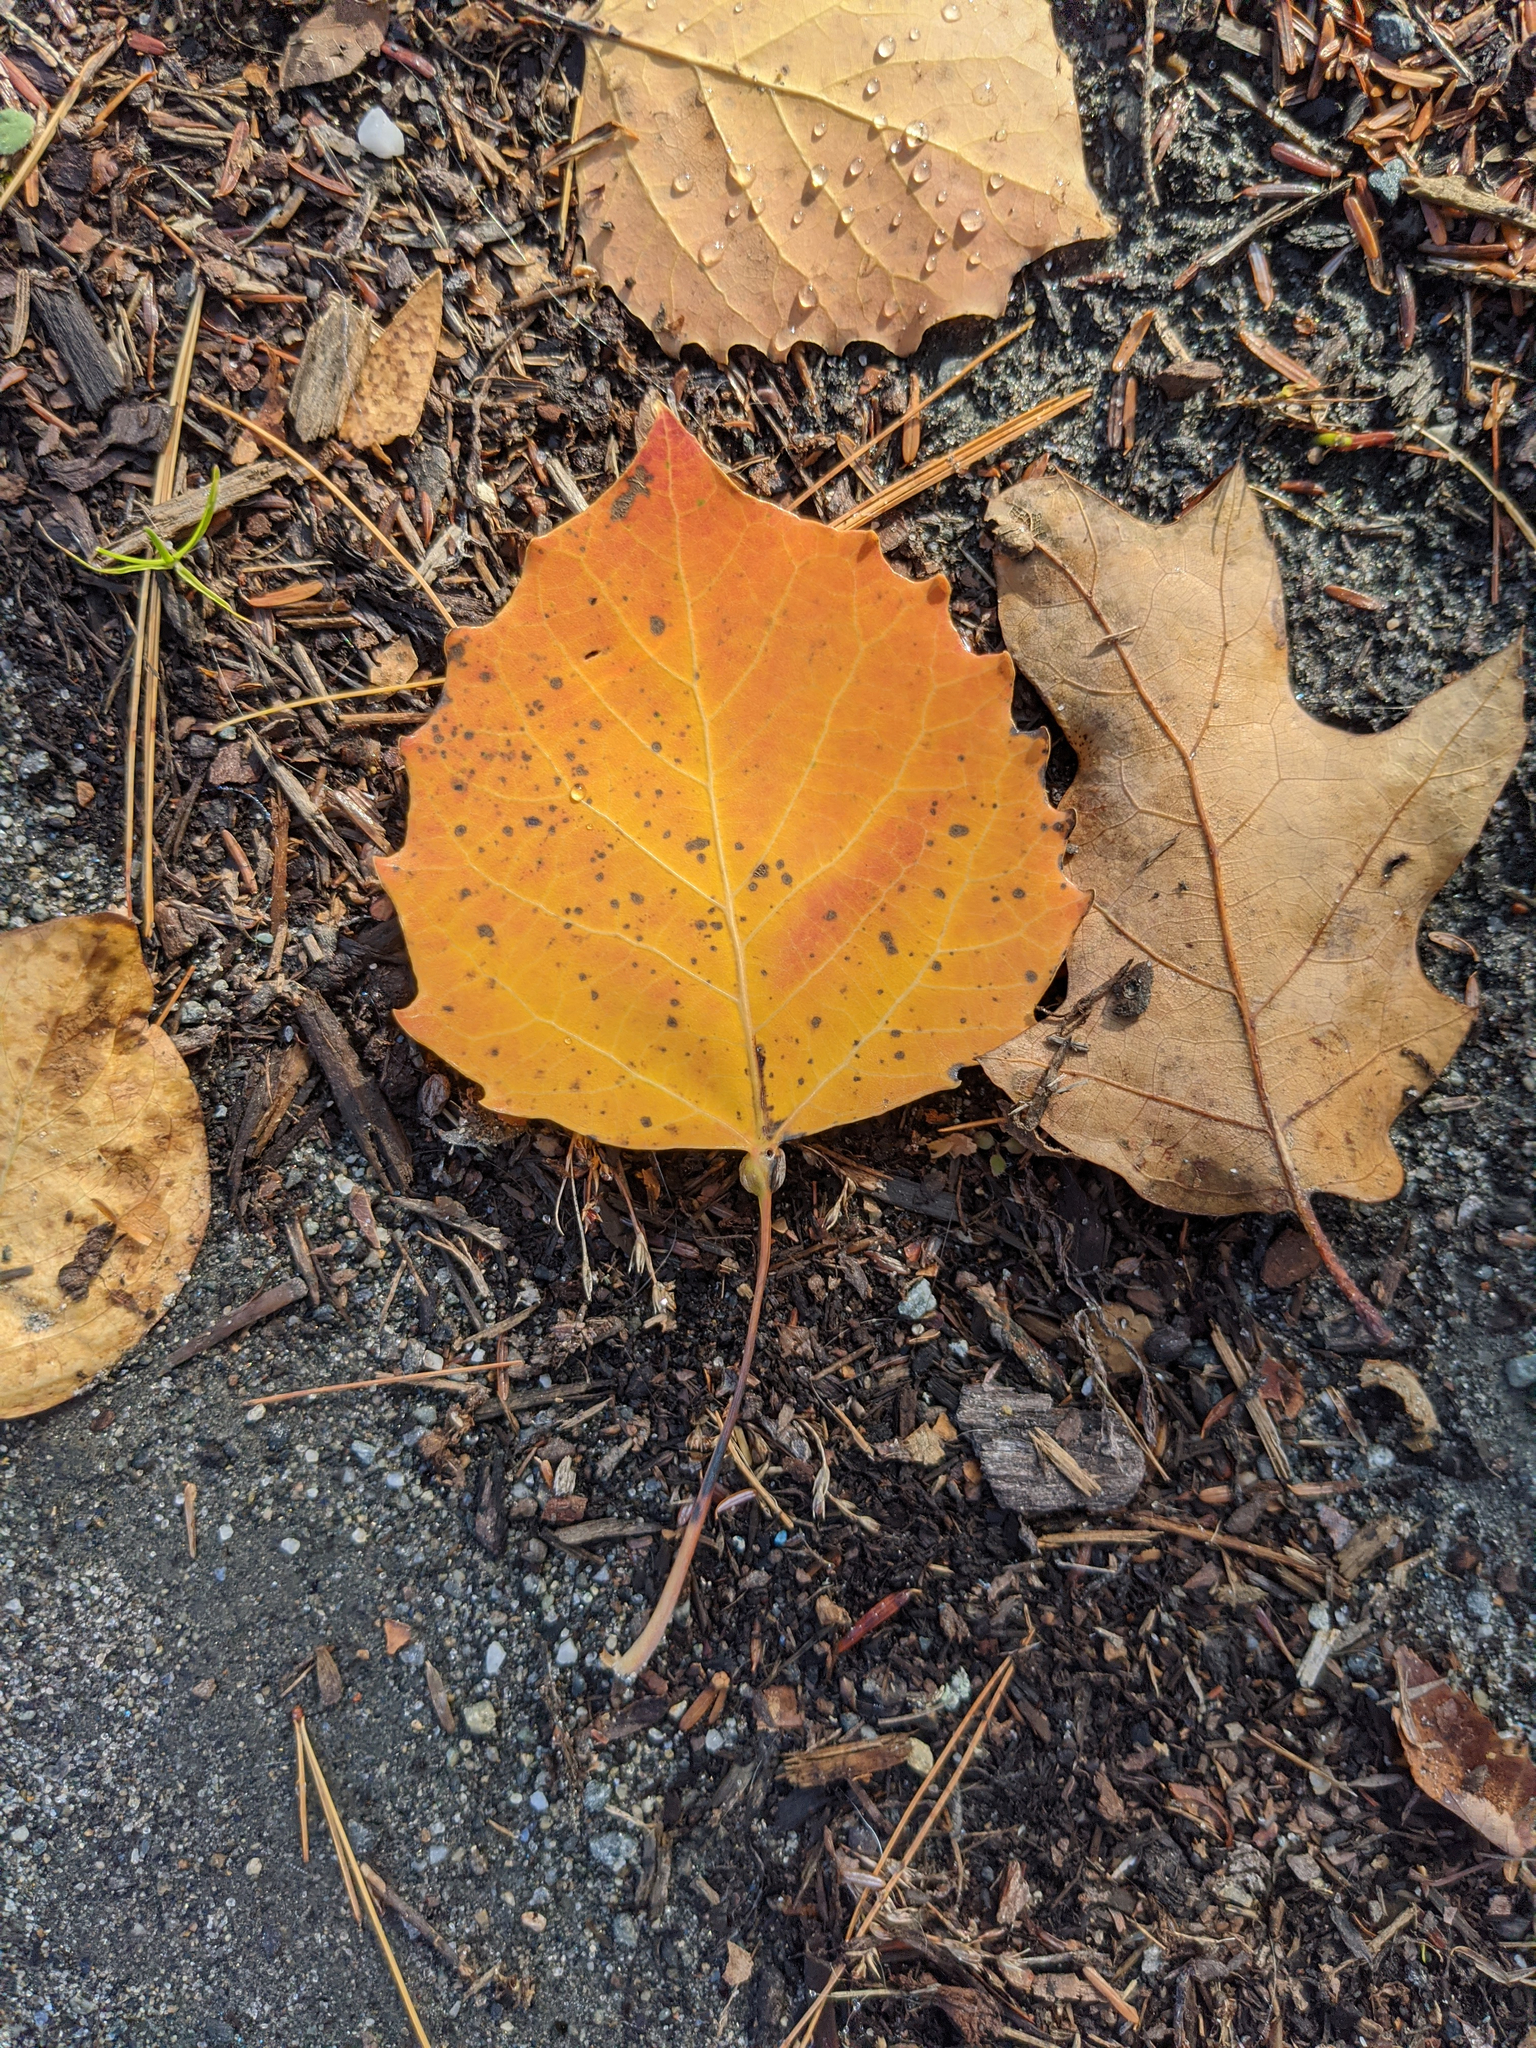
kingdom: Plantae
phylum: Tracheophyta
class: Magnoliopsida
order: Malpighiales
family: Salicaceae
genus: Populus
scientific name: Populus grandidentata
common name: Bigtooth aspen
